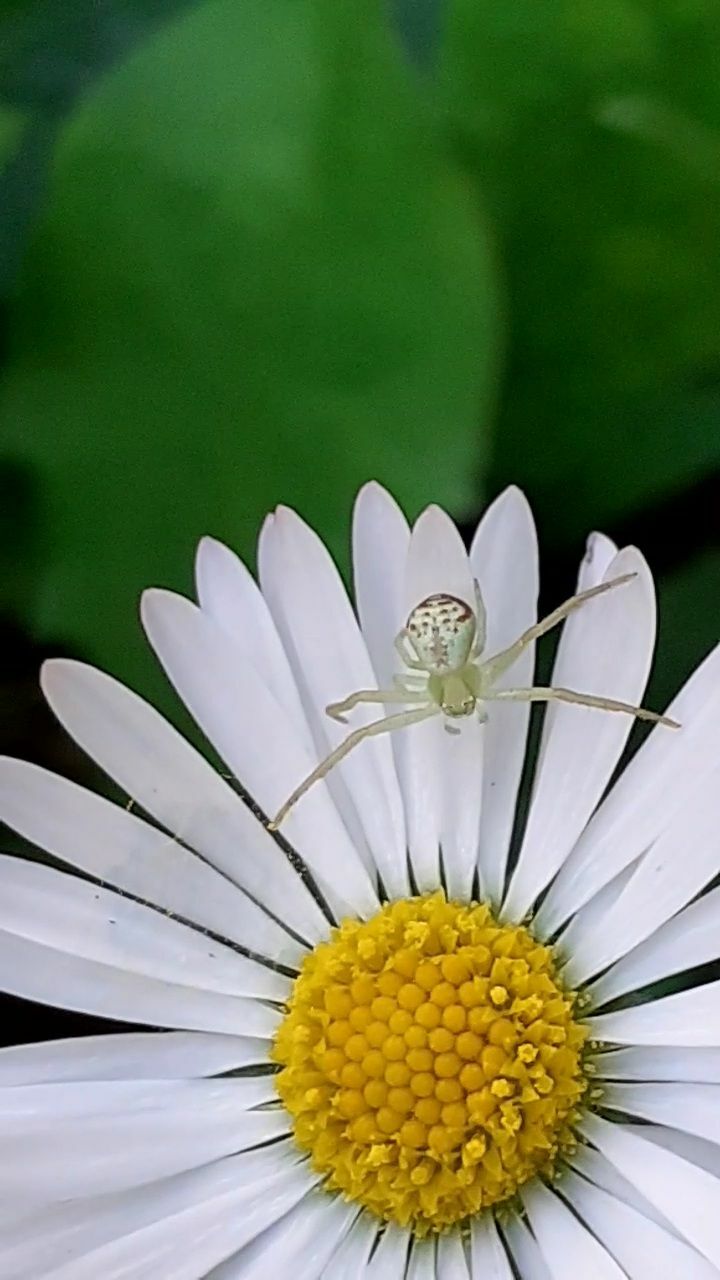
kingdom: Animalia
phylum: Arthropoda
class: Arachnida
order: Araneae
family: Thomisidae
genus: Ebrechtella
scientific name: Ebrechtella tricuspidata
